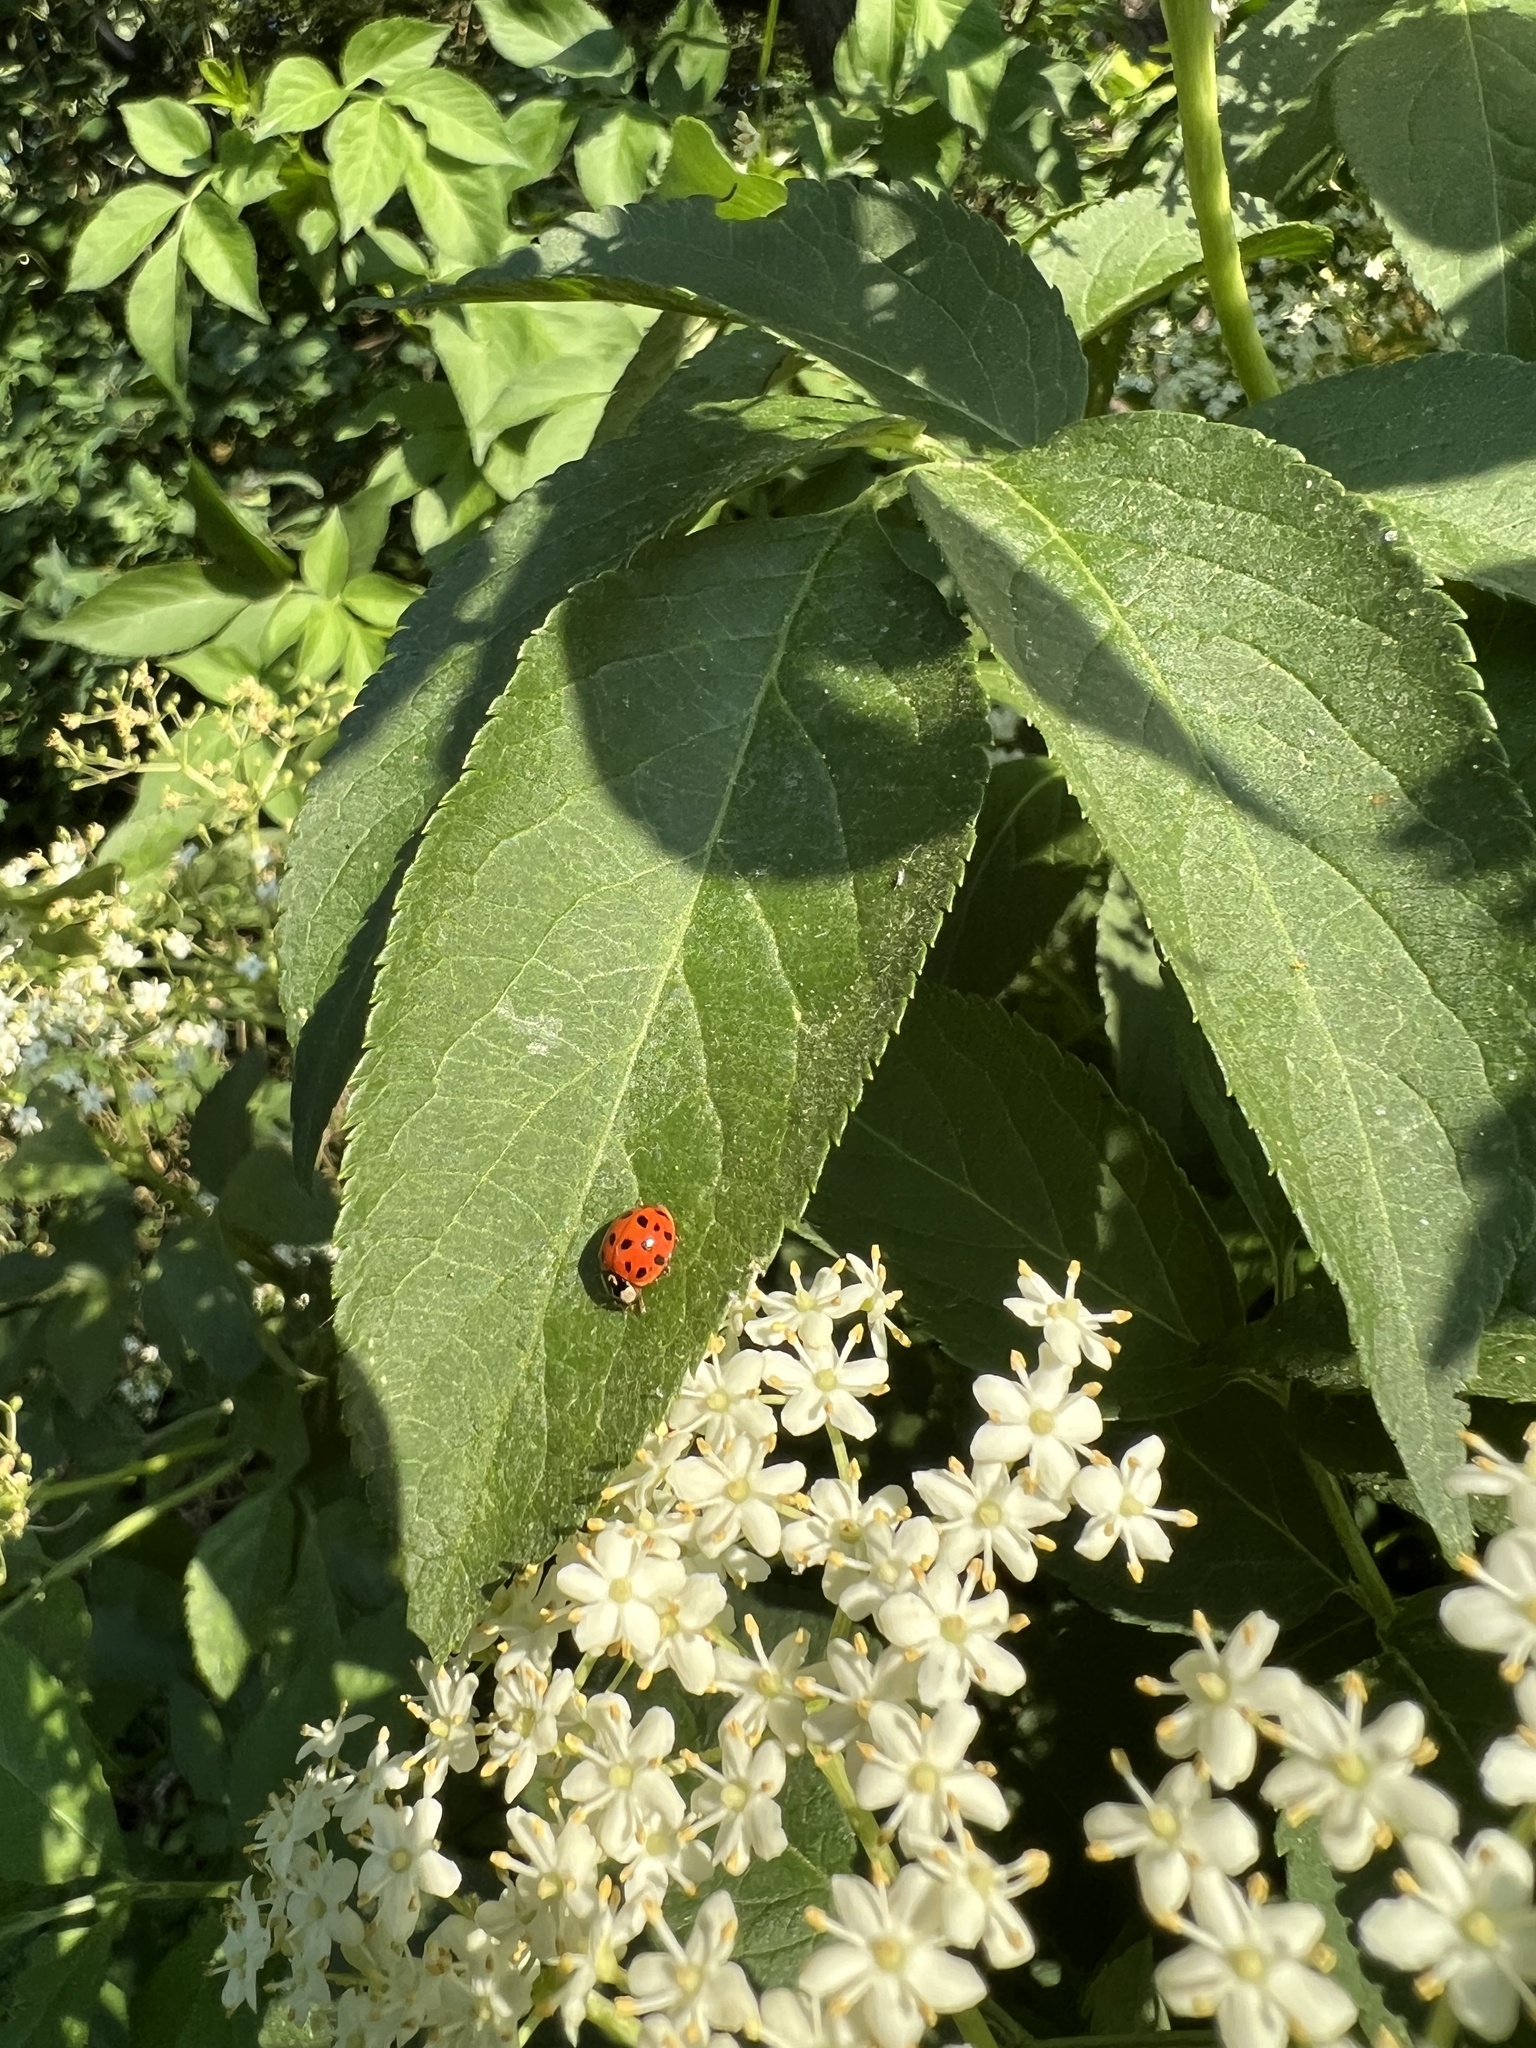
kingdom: Animalia
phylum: Arthropoda
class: Insecta
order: Coleoptera
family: Coccinellidae
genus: Harmonia
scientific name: Harmonia axyridis
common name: Harlequin ladybird
